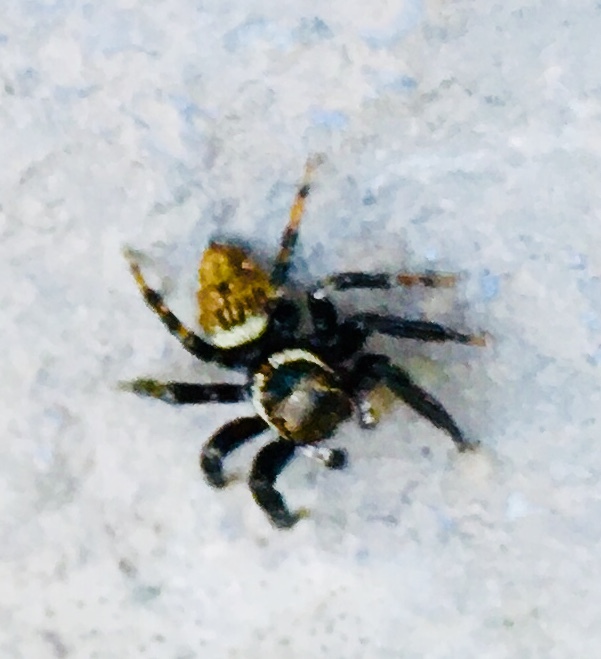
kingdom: Animalia
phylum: Arthropoda
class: Arachnida
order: Araneae
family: Salticidae
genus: Evarcha
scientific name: Evarcha jucunda
